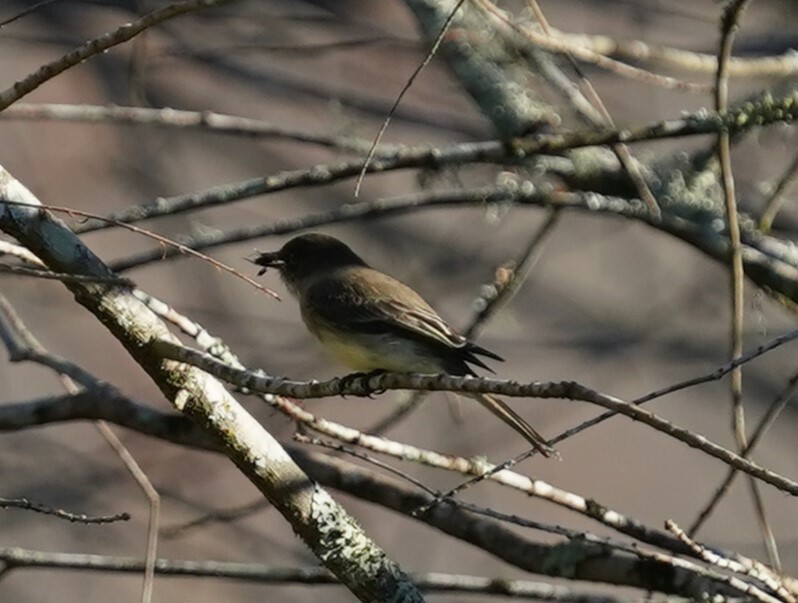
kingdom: Animalia
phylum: Chordata
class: Aves
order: Passeriformes
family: Tyrannidae
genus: Sayornis
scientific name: Sayornis phoebe
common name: Eastern phoebe
